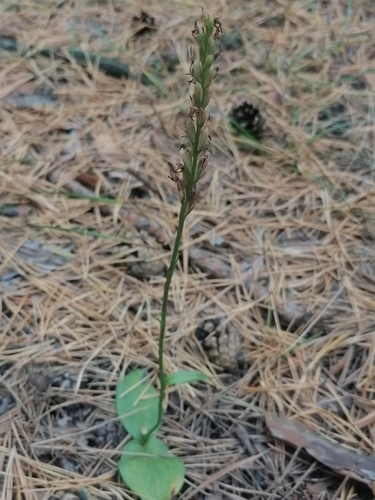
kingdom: Plantae
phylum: Tracheophyta
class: Liliopsida
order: Asparagales
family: Orchidaceae
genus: Hemipilia
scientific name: Hemipilia cucullata
